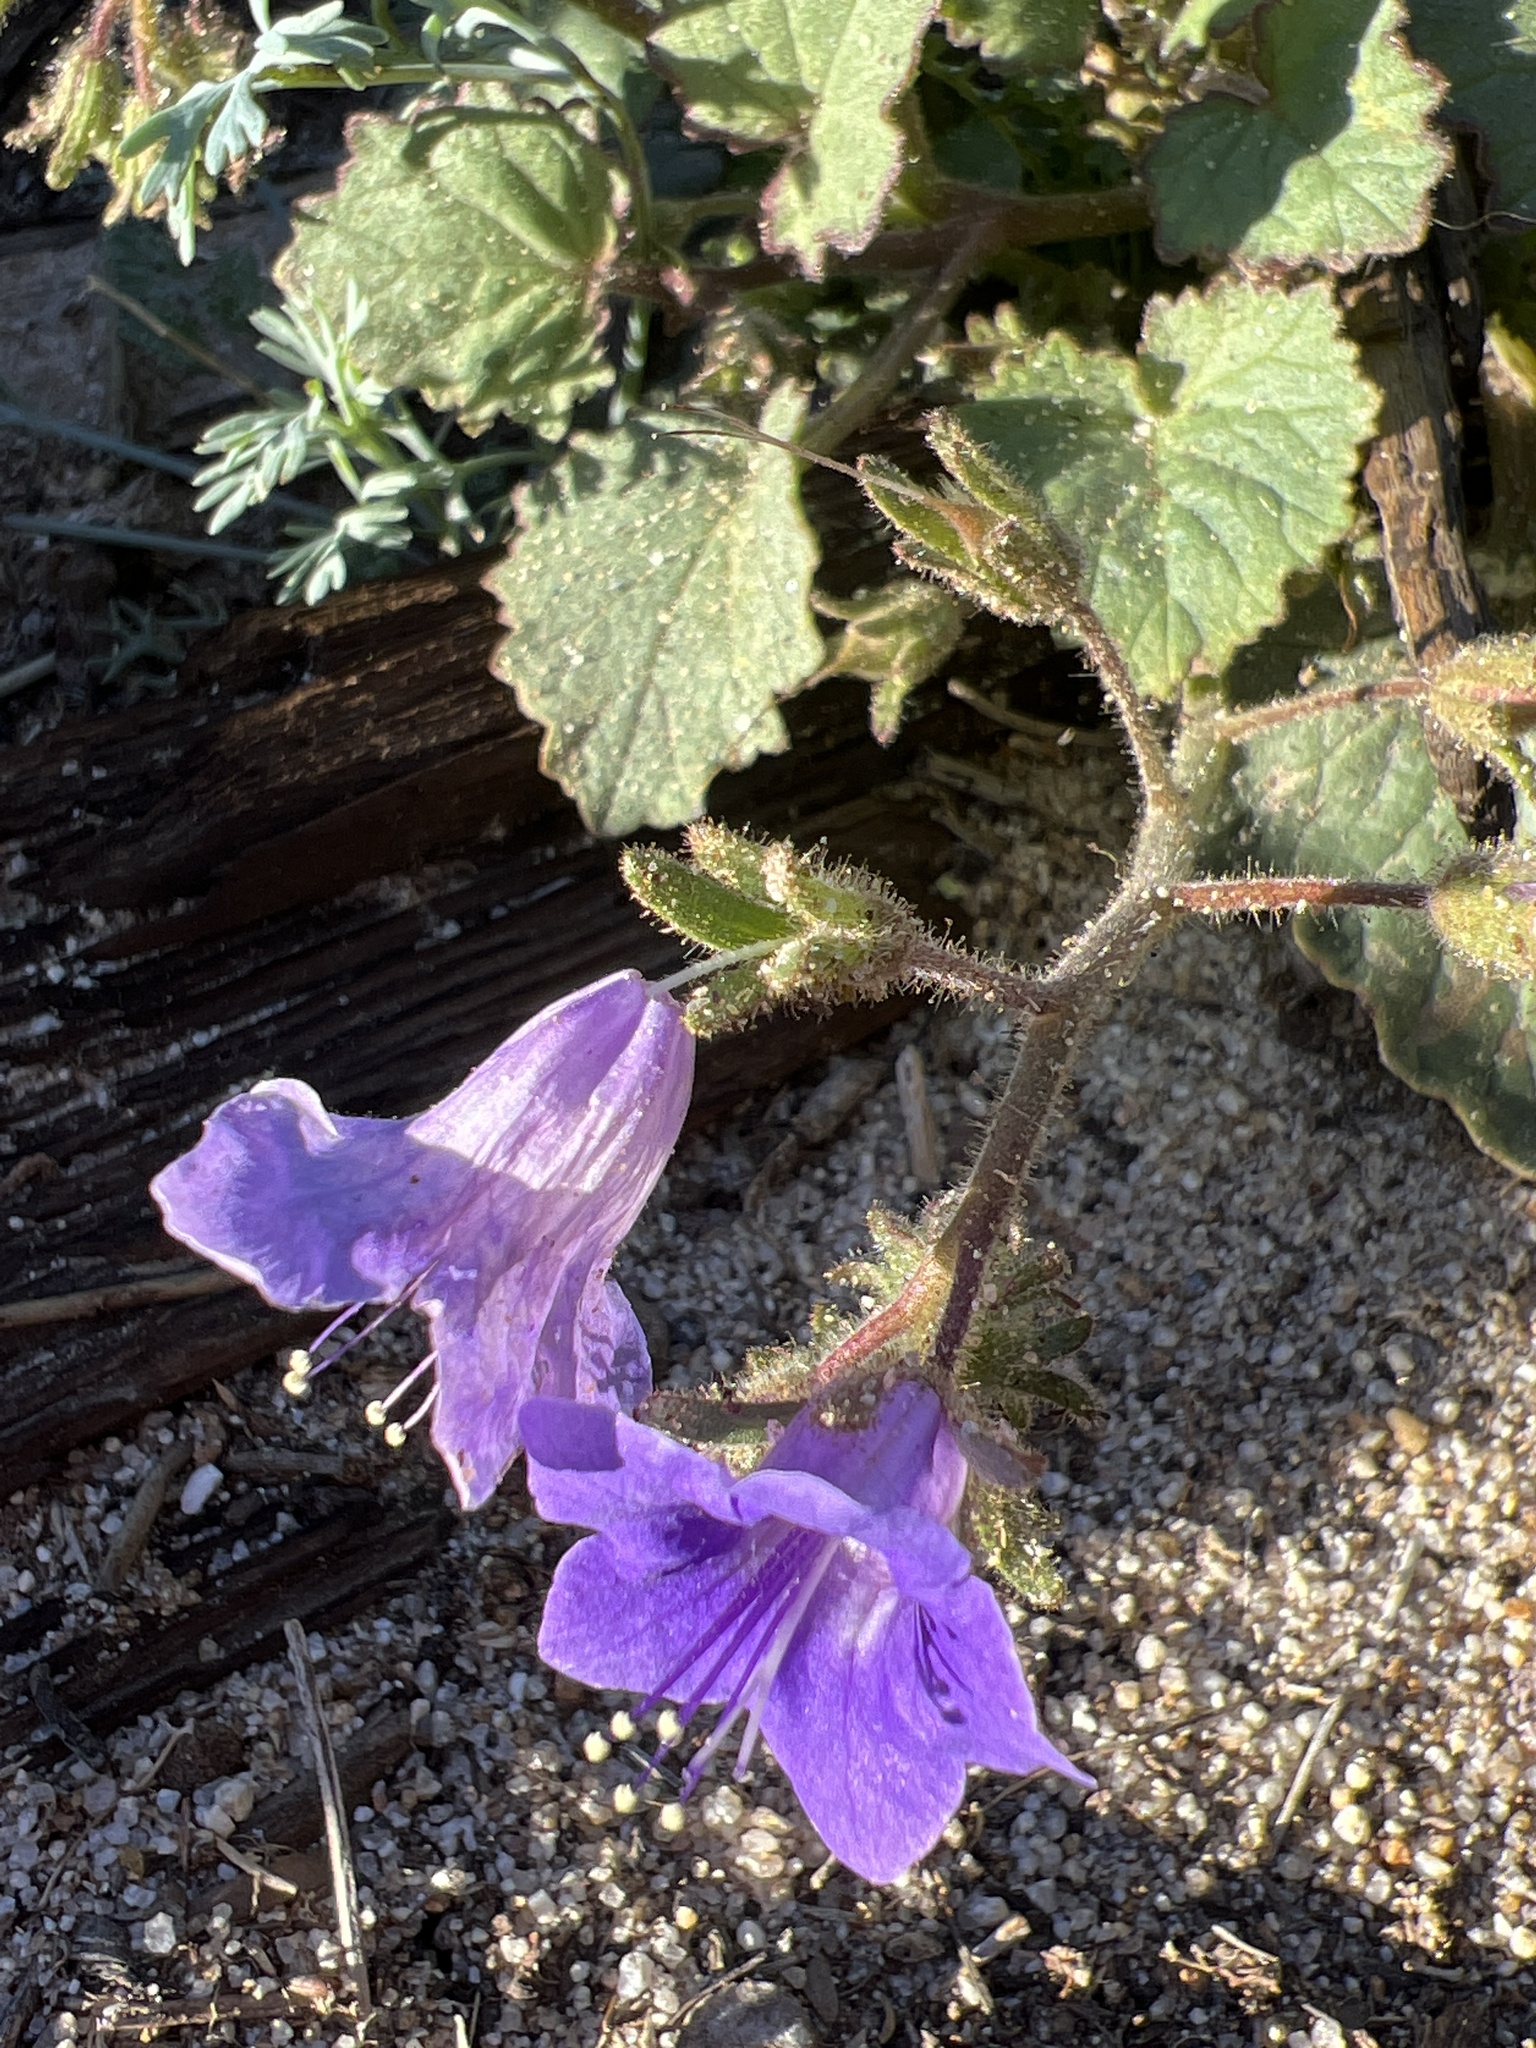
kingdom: Plantae
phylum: Tracheophyta
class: Magnoliopsida
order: Boraginales
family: Hydrophyllaceae
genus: Phacelia
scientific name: Phacelia minor
